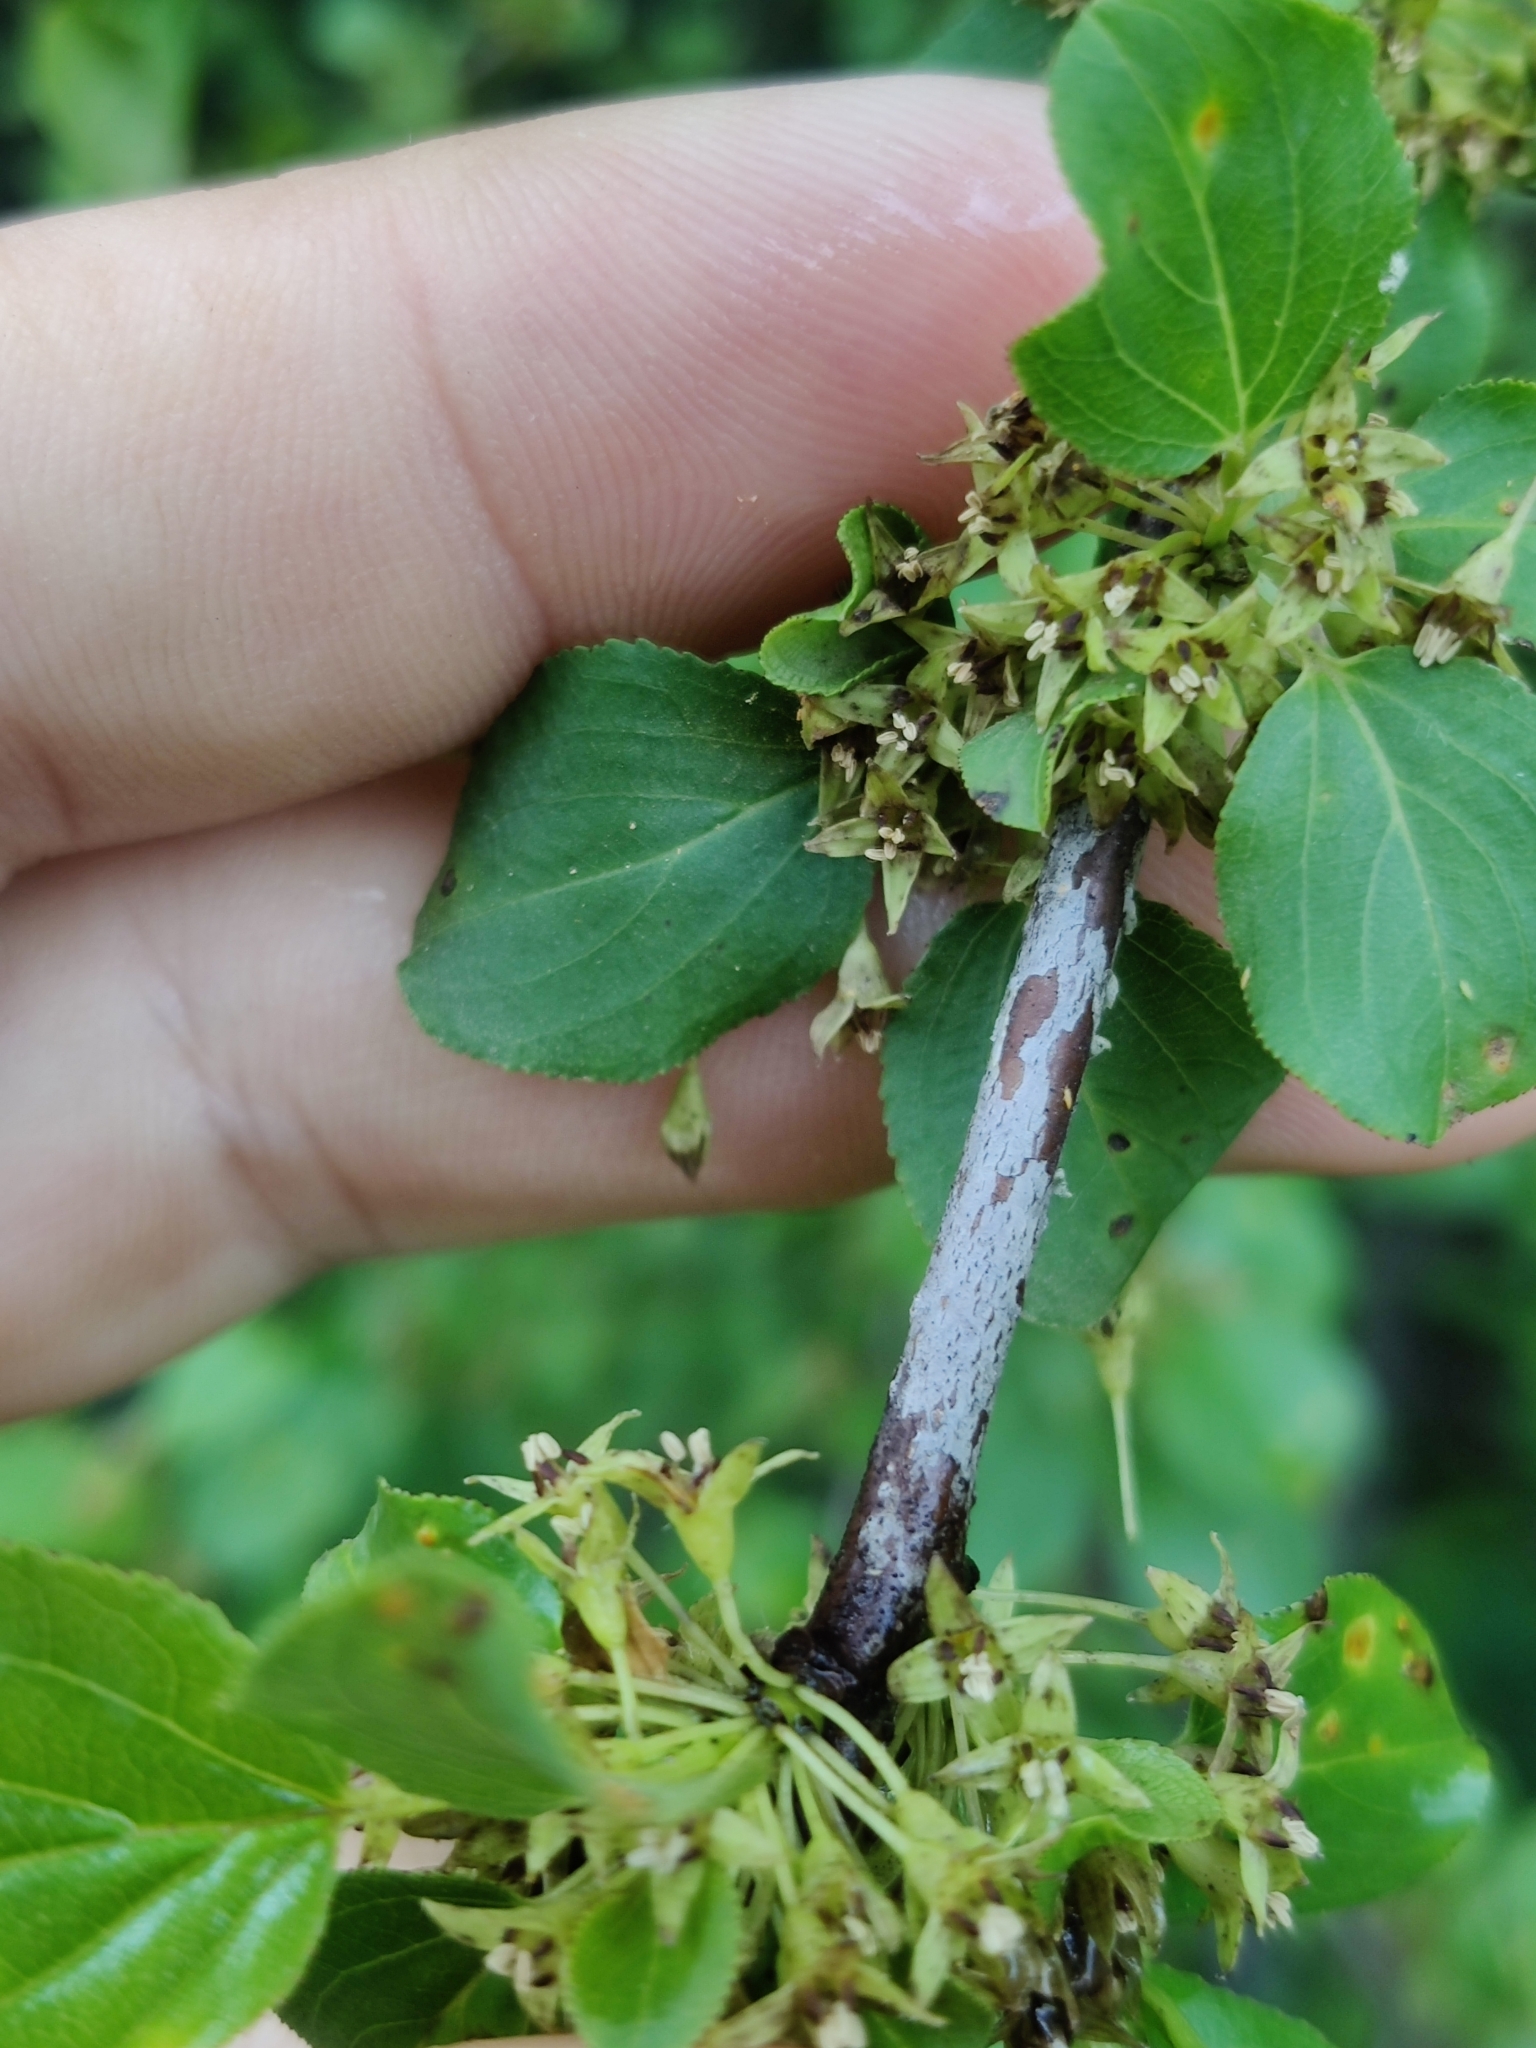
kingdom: Plantae
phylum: Tracheophyta
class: Magnoliopsida
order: Rosales
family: Rhamnaceae
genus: Rhamnus
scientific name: Rhamnus cathartica
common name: Common buckthorn
